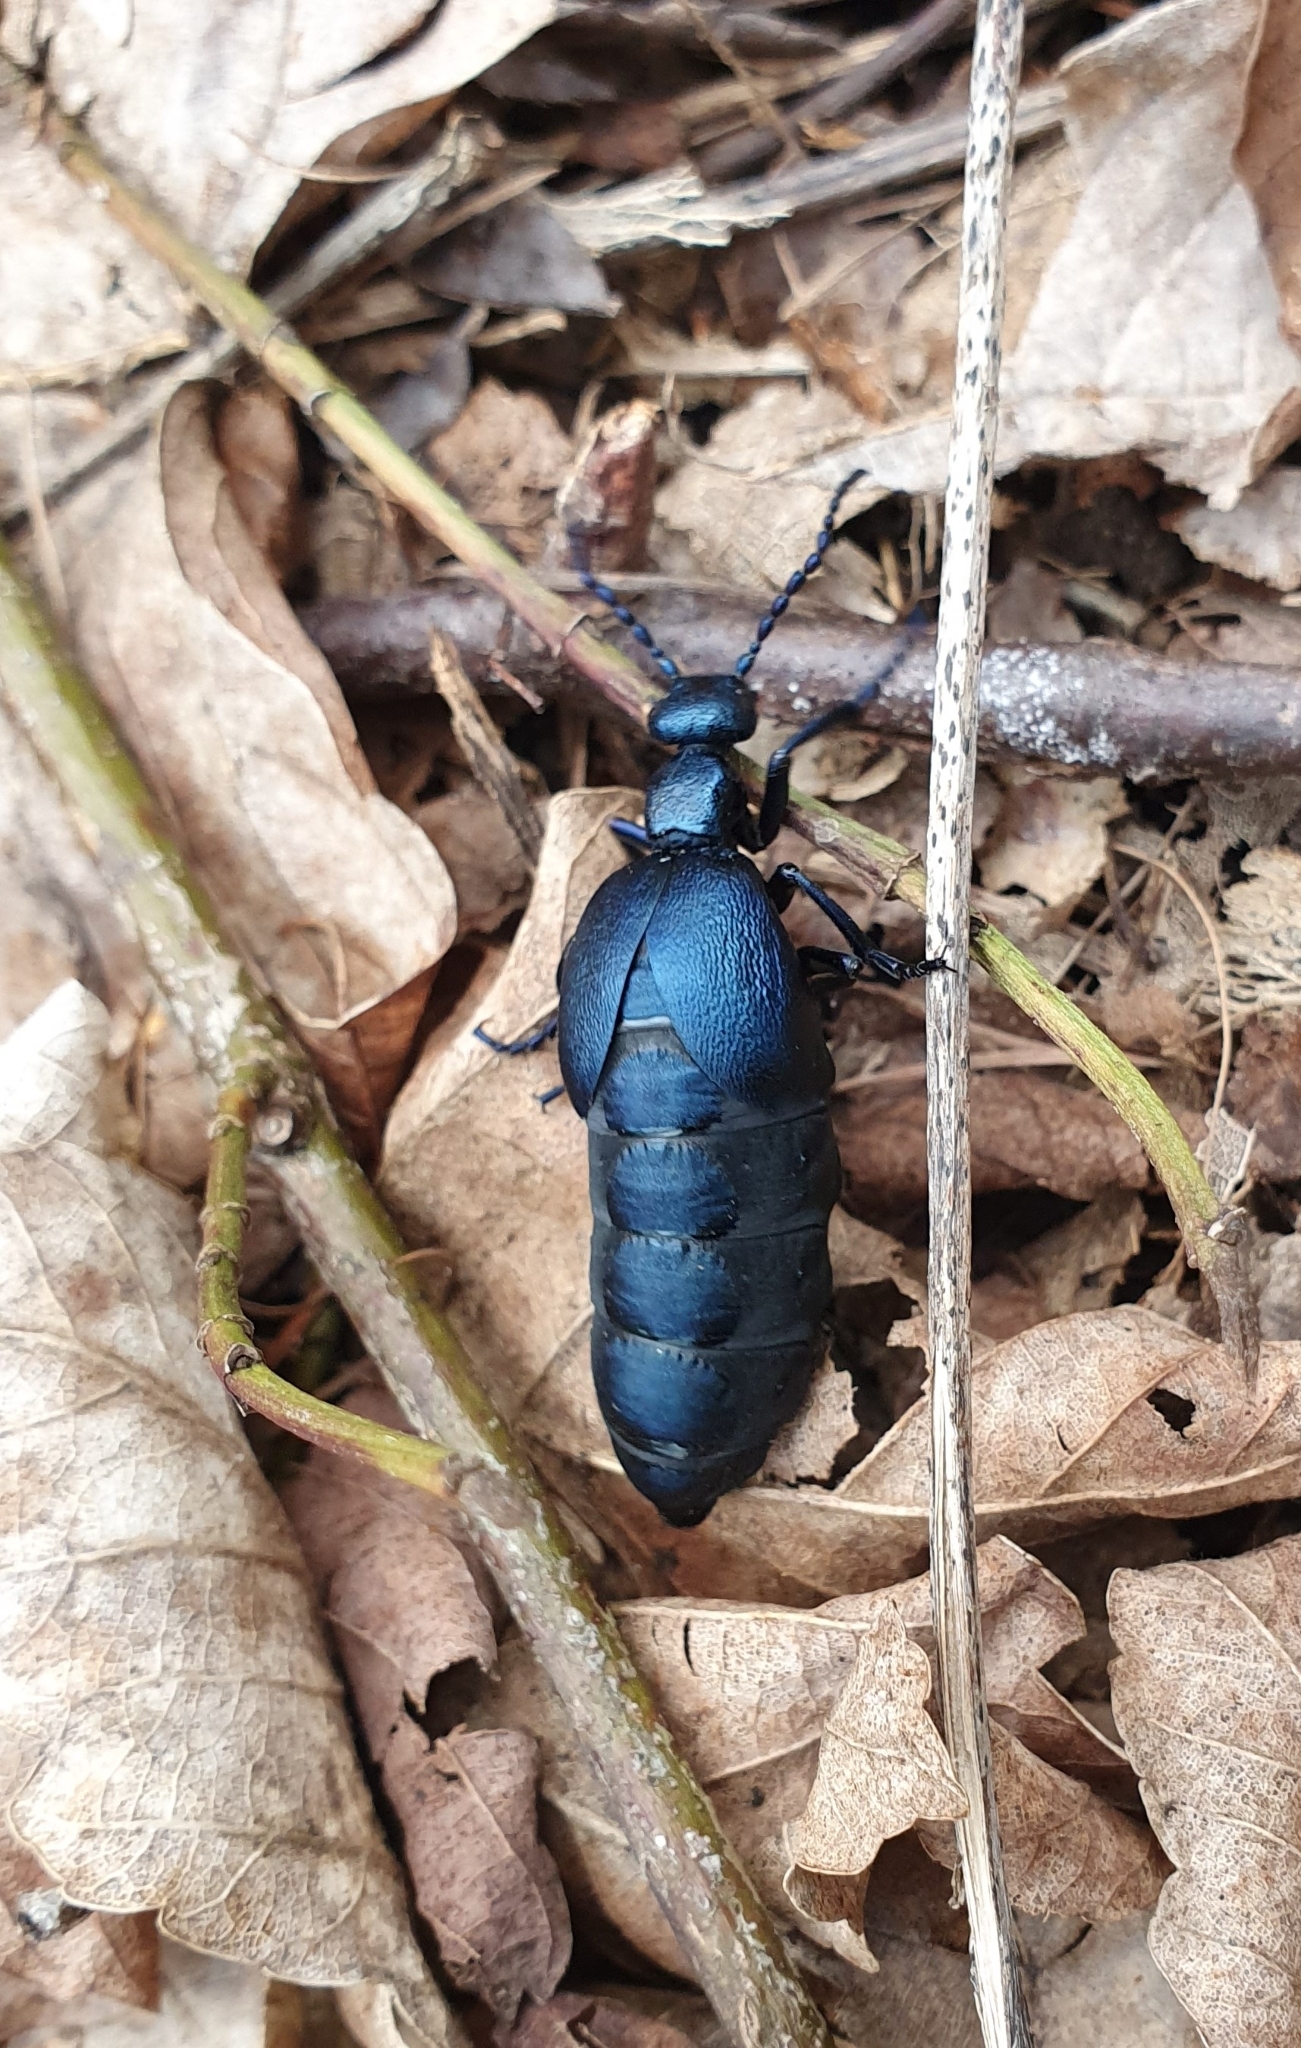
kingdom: Animalia
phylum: Arthropoda
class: Insecta
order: Coleoptera
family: Meloidae
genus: Meloe
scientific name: Meloe violaceus
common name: Violet oil-beetle
